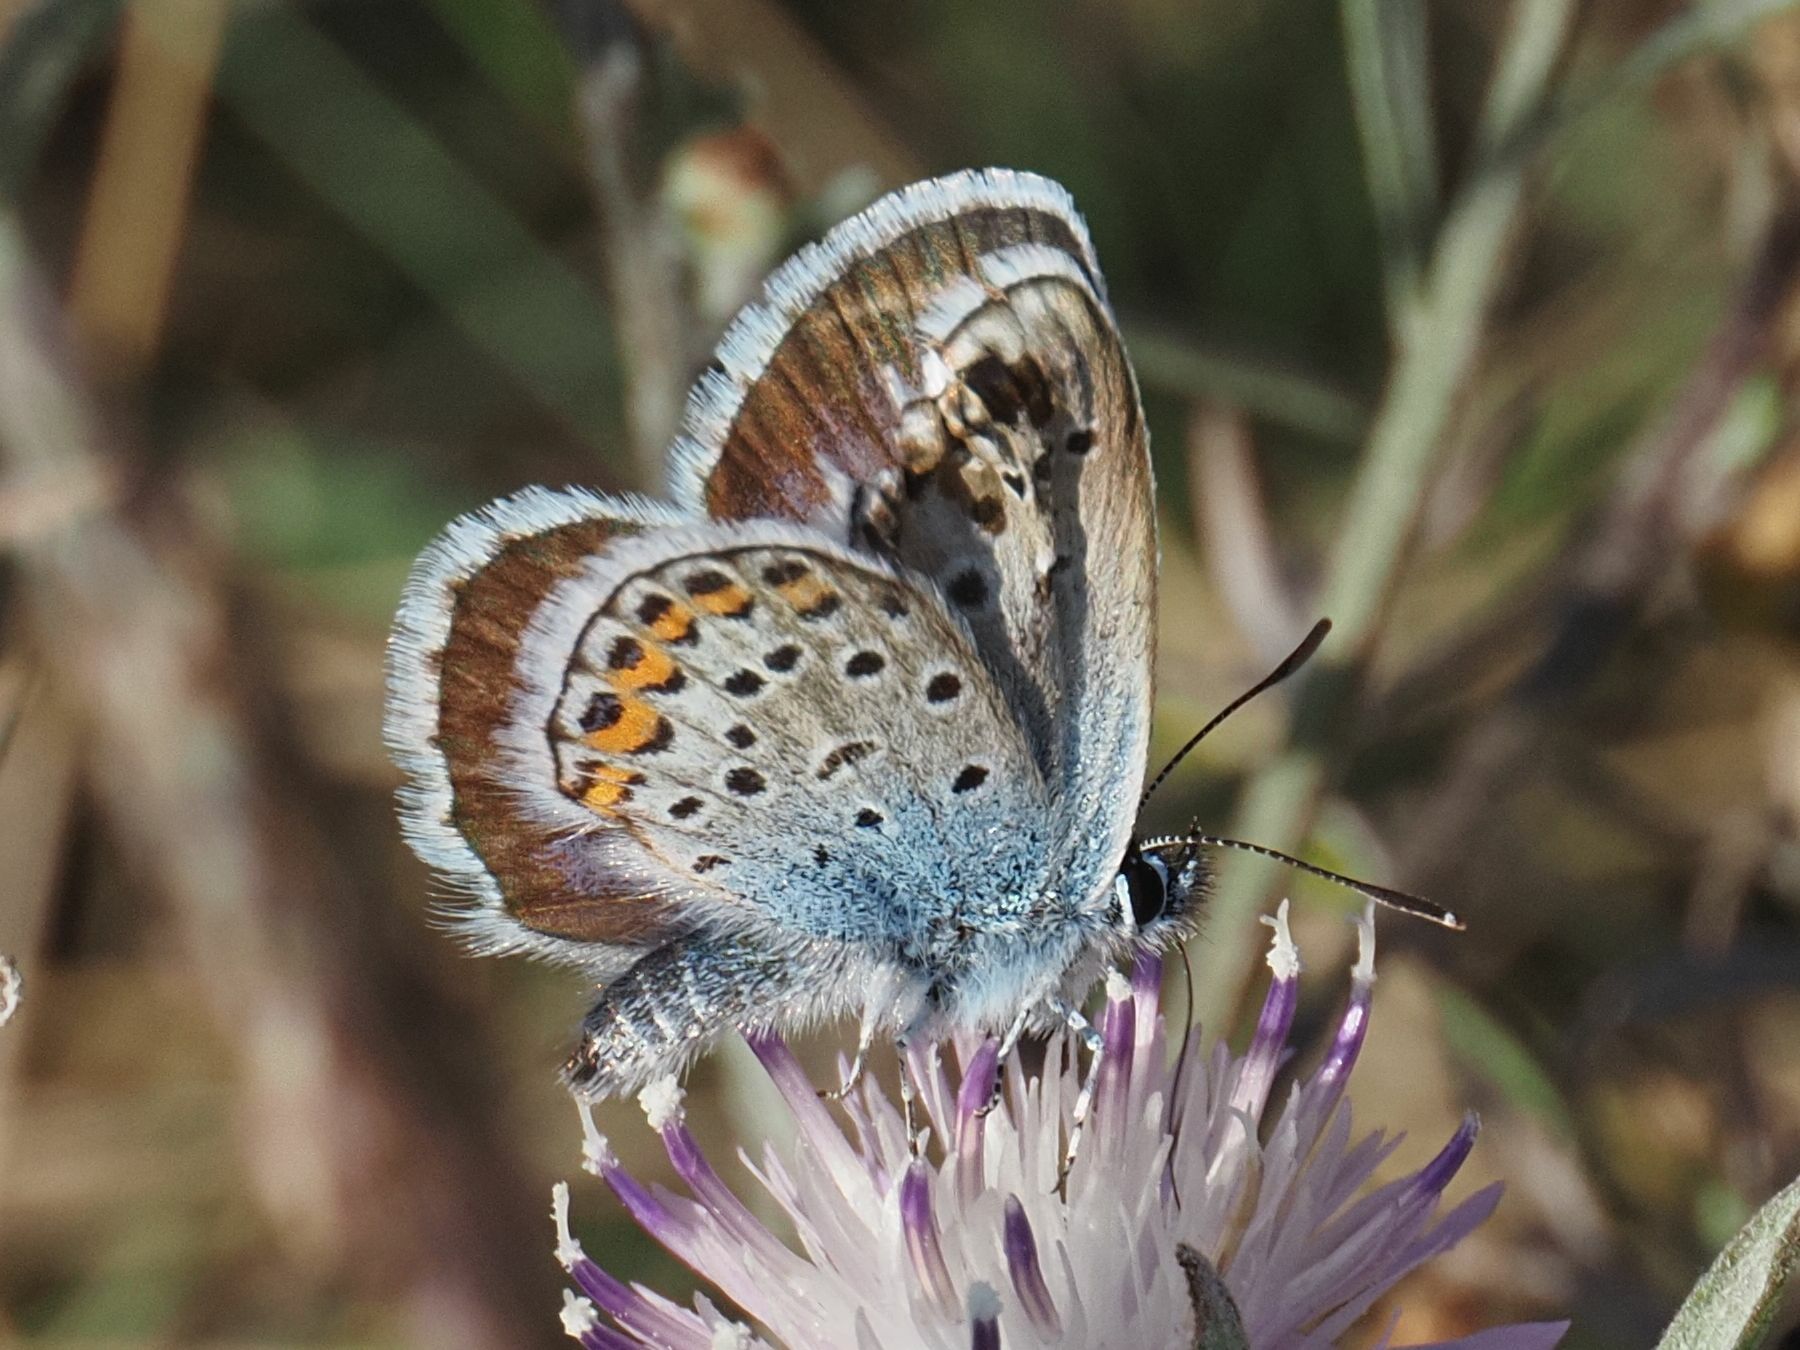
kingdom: Animalia
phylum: Arthropoda
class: Insecta
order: Lepidoptera
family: Lycaenidae
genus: Plebejus
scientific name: Plebejus argus
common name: Silver-studded blue
